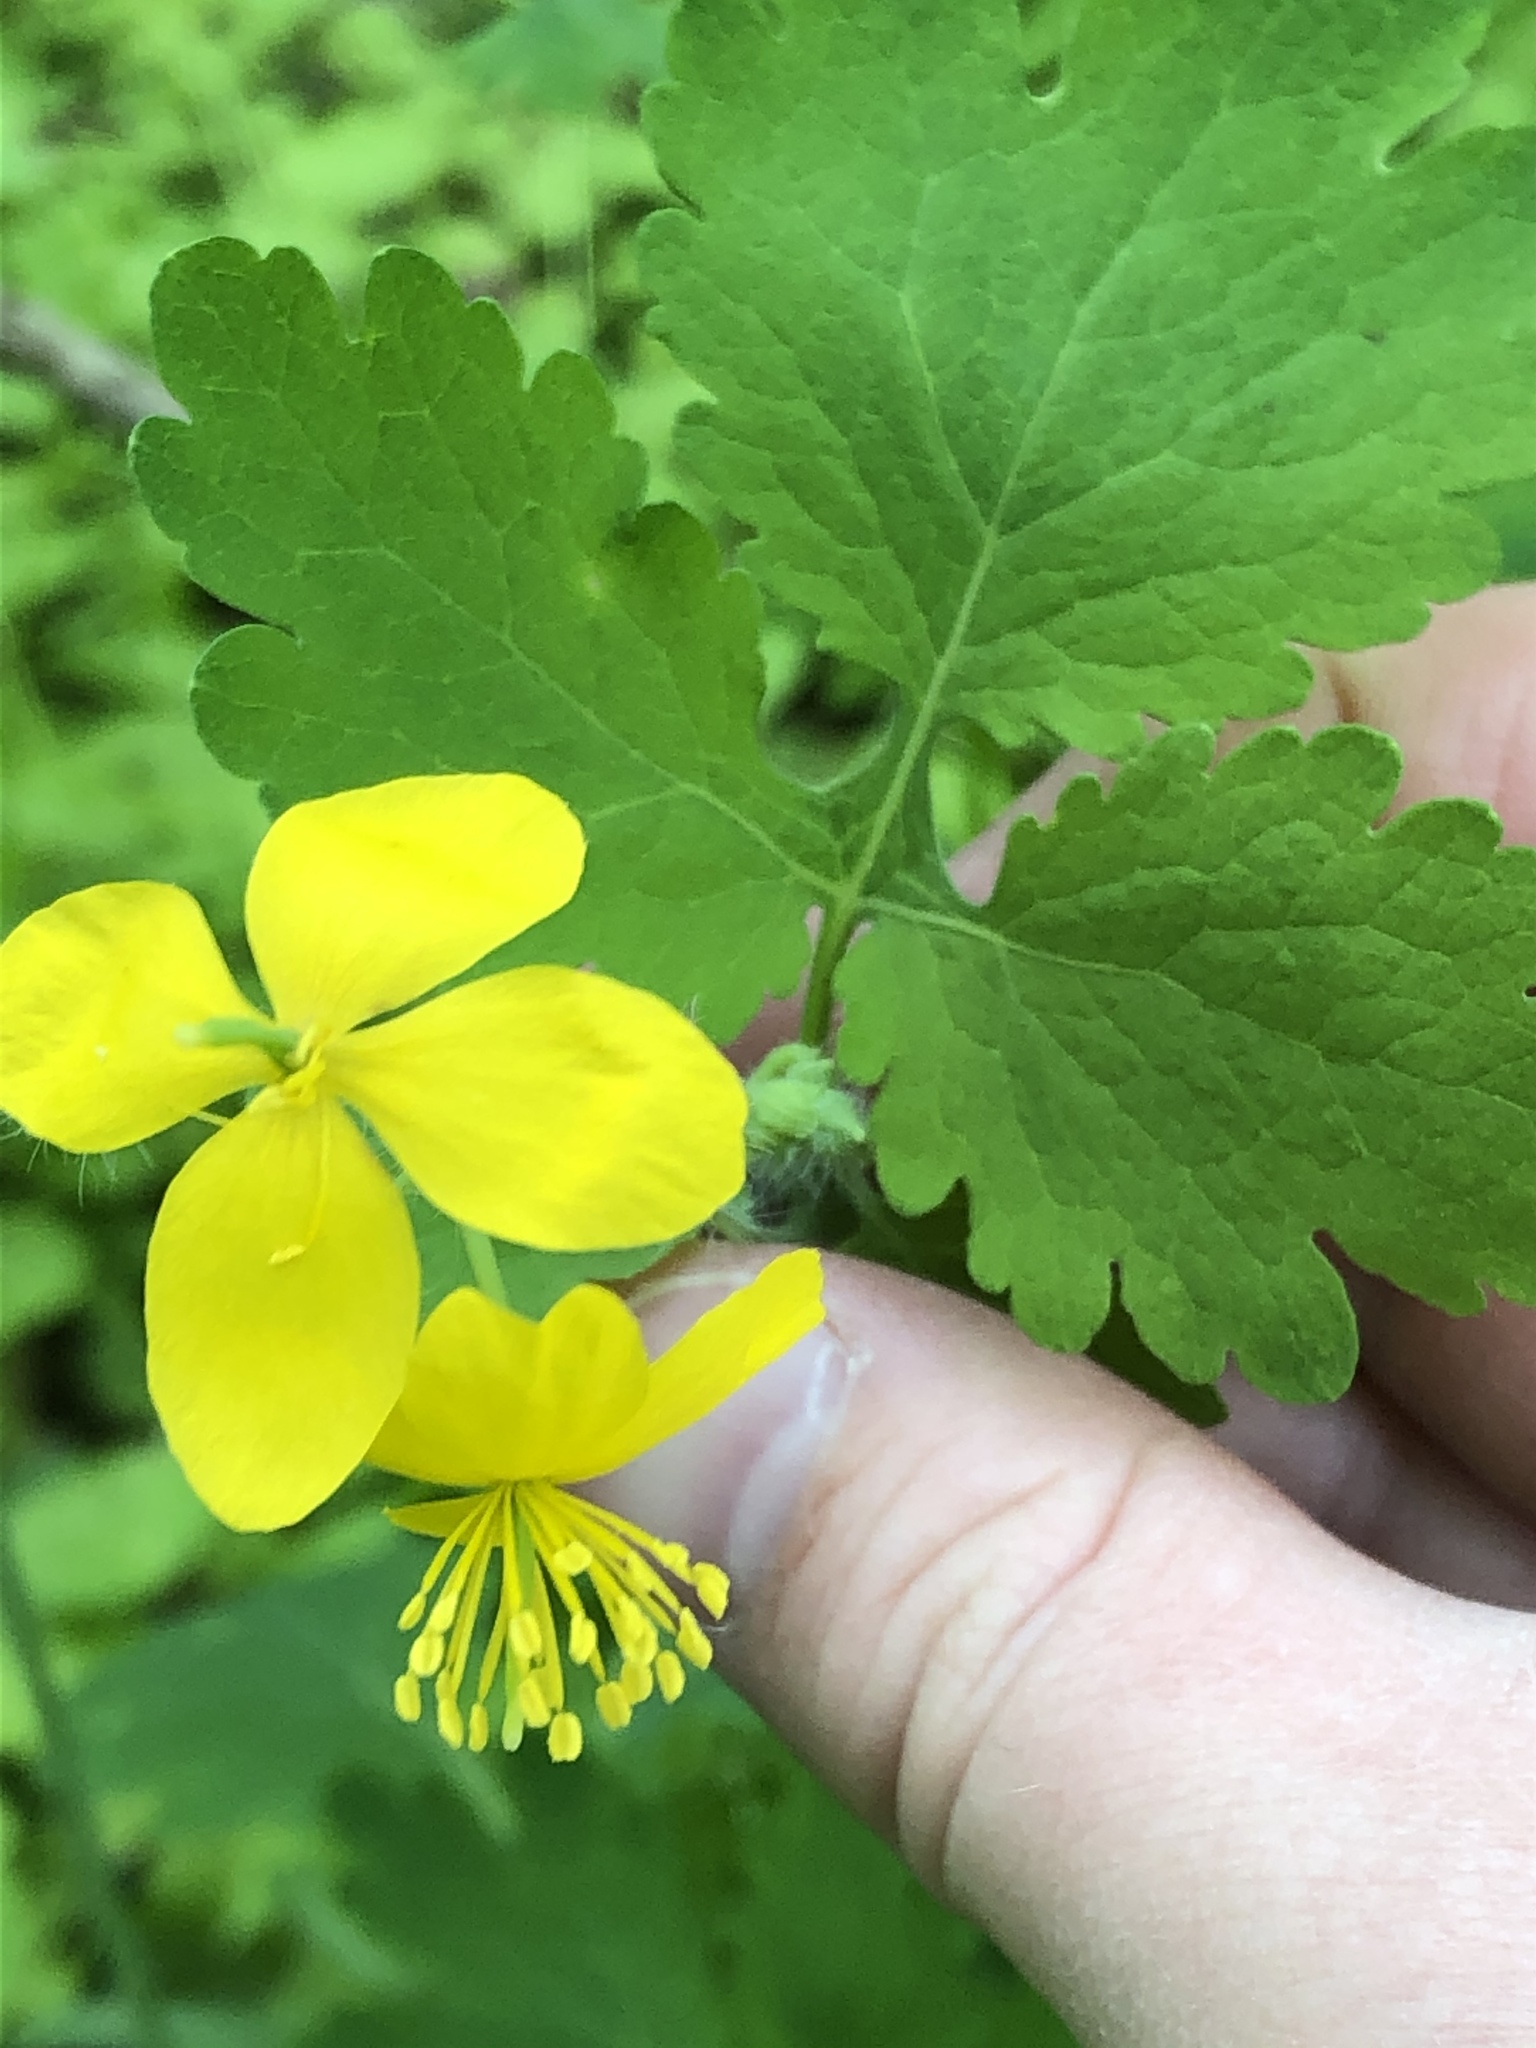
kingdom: Plantae
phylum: Tracheophyta
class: Magnoliopsida
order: Ranunculales
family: Papaveraceae
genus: Chelidonium
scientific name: Chelidonium majus
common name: Greater celandine
